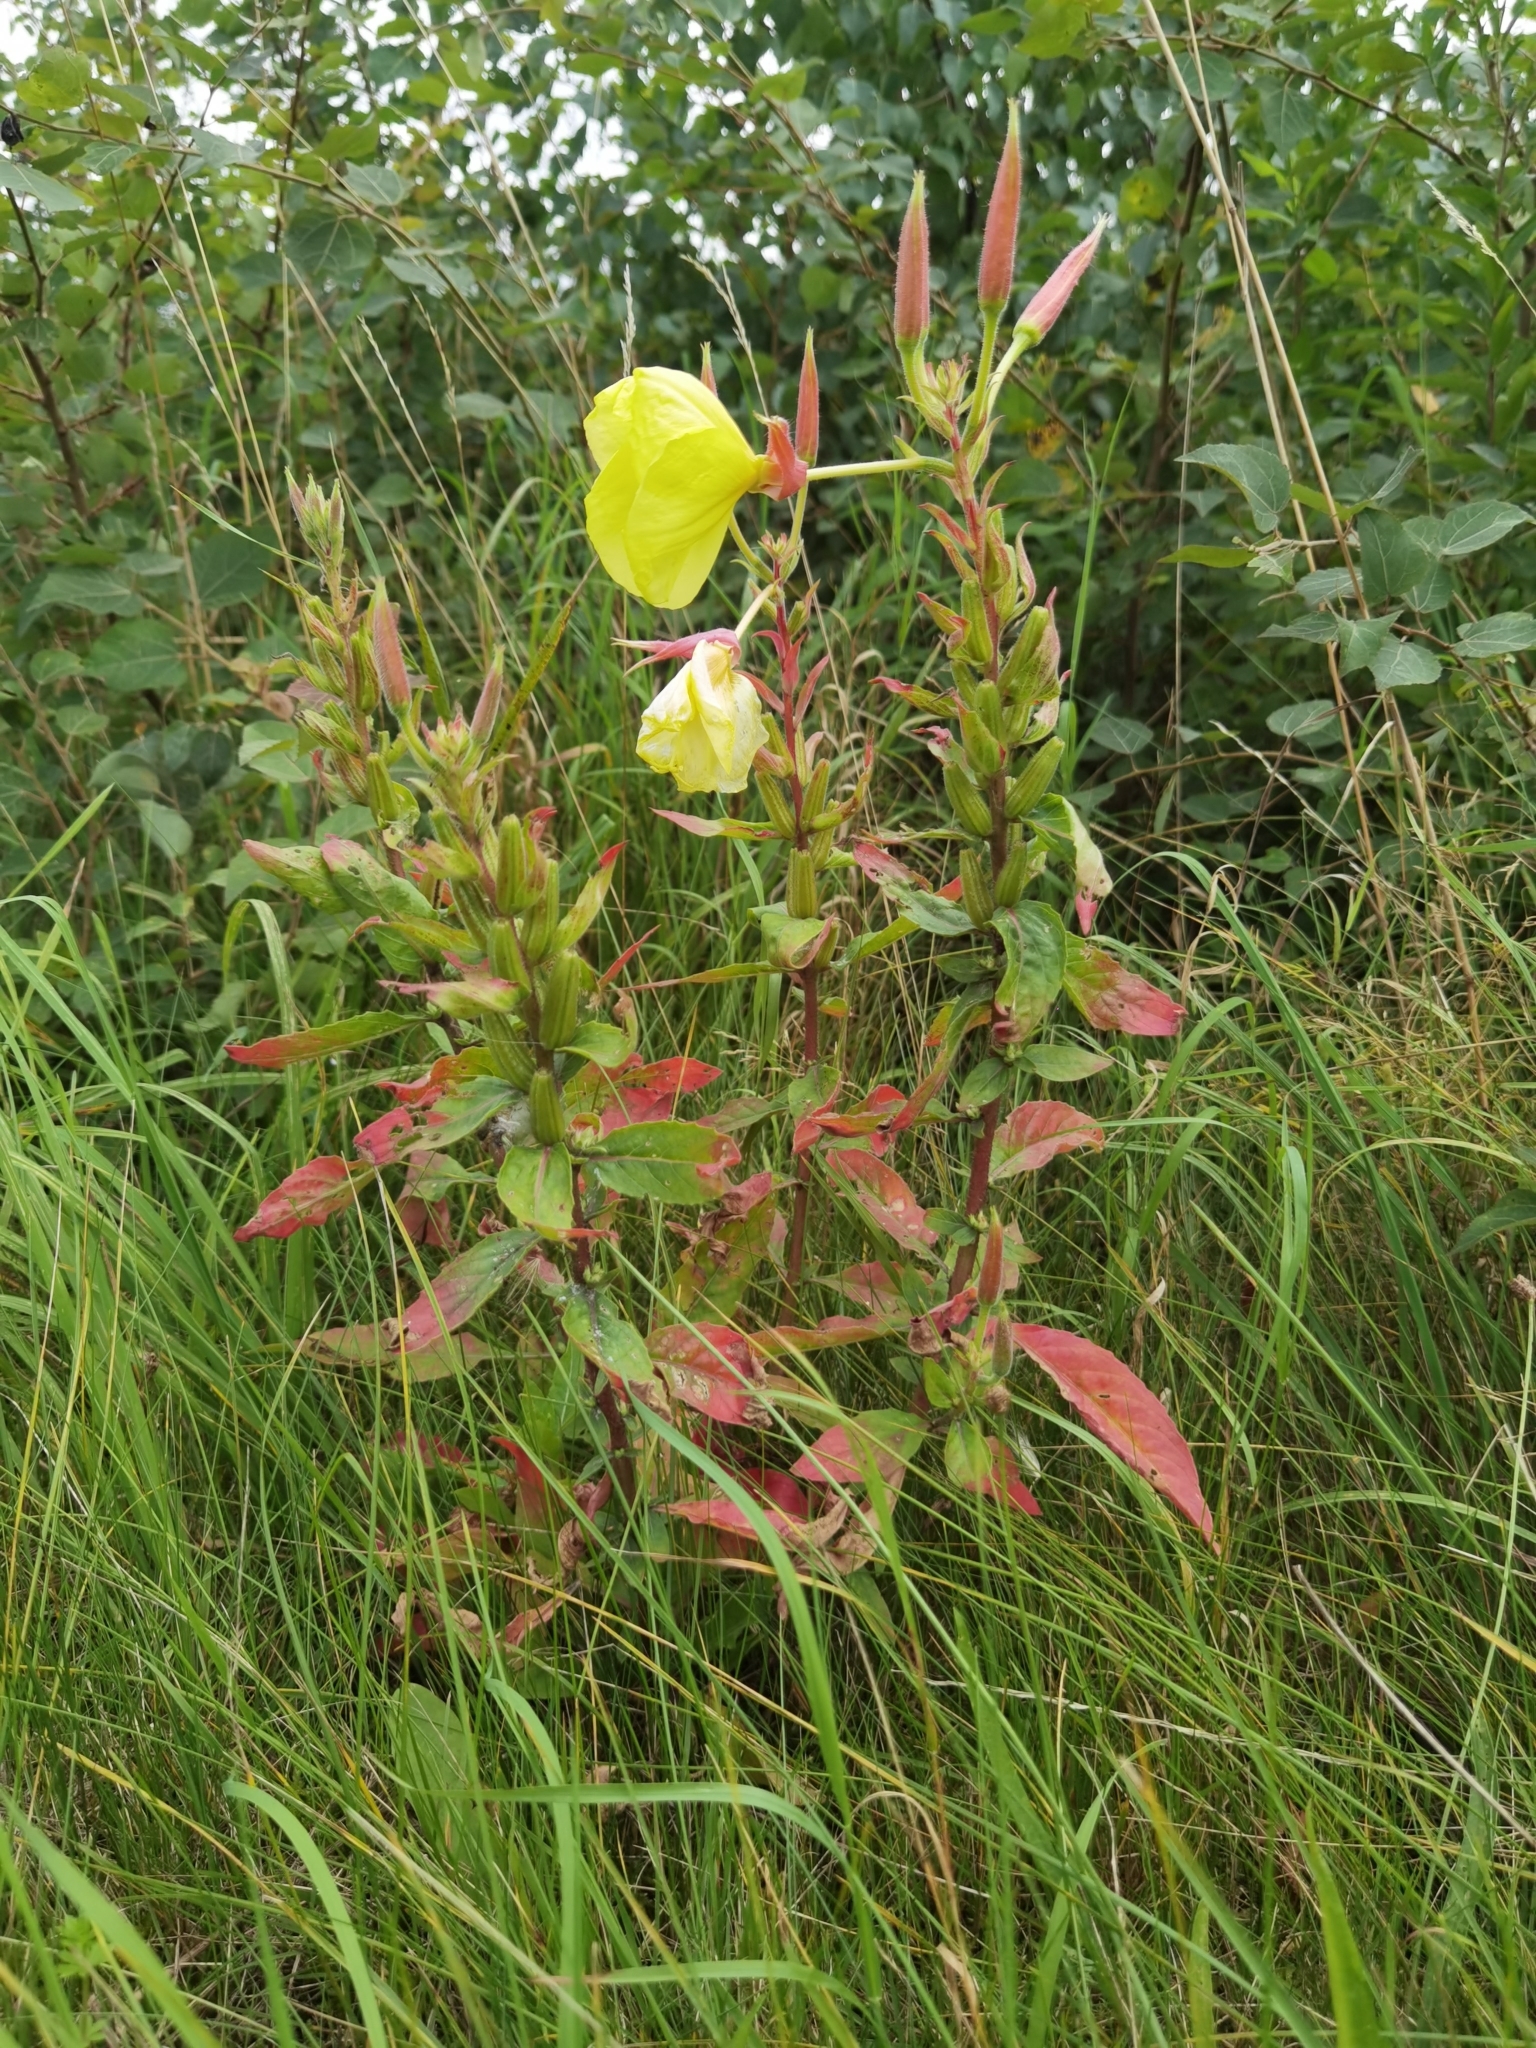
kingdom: Plantae
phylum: Tracheophyta
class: Magnoliopsida
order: Myrtales
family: Onagraceae
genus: Oenothera
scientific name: Oenothera glazioviana
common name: Large-flowered evening-primrose
